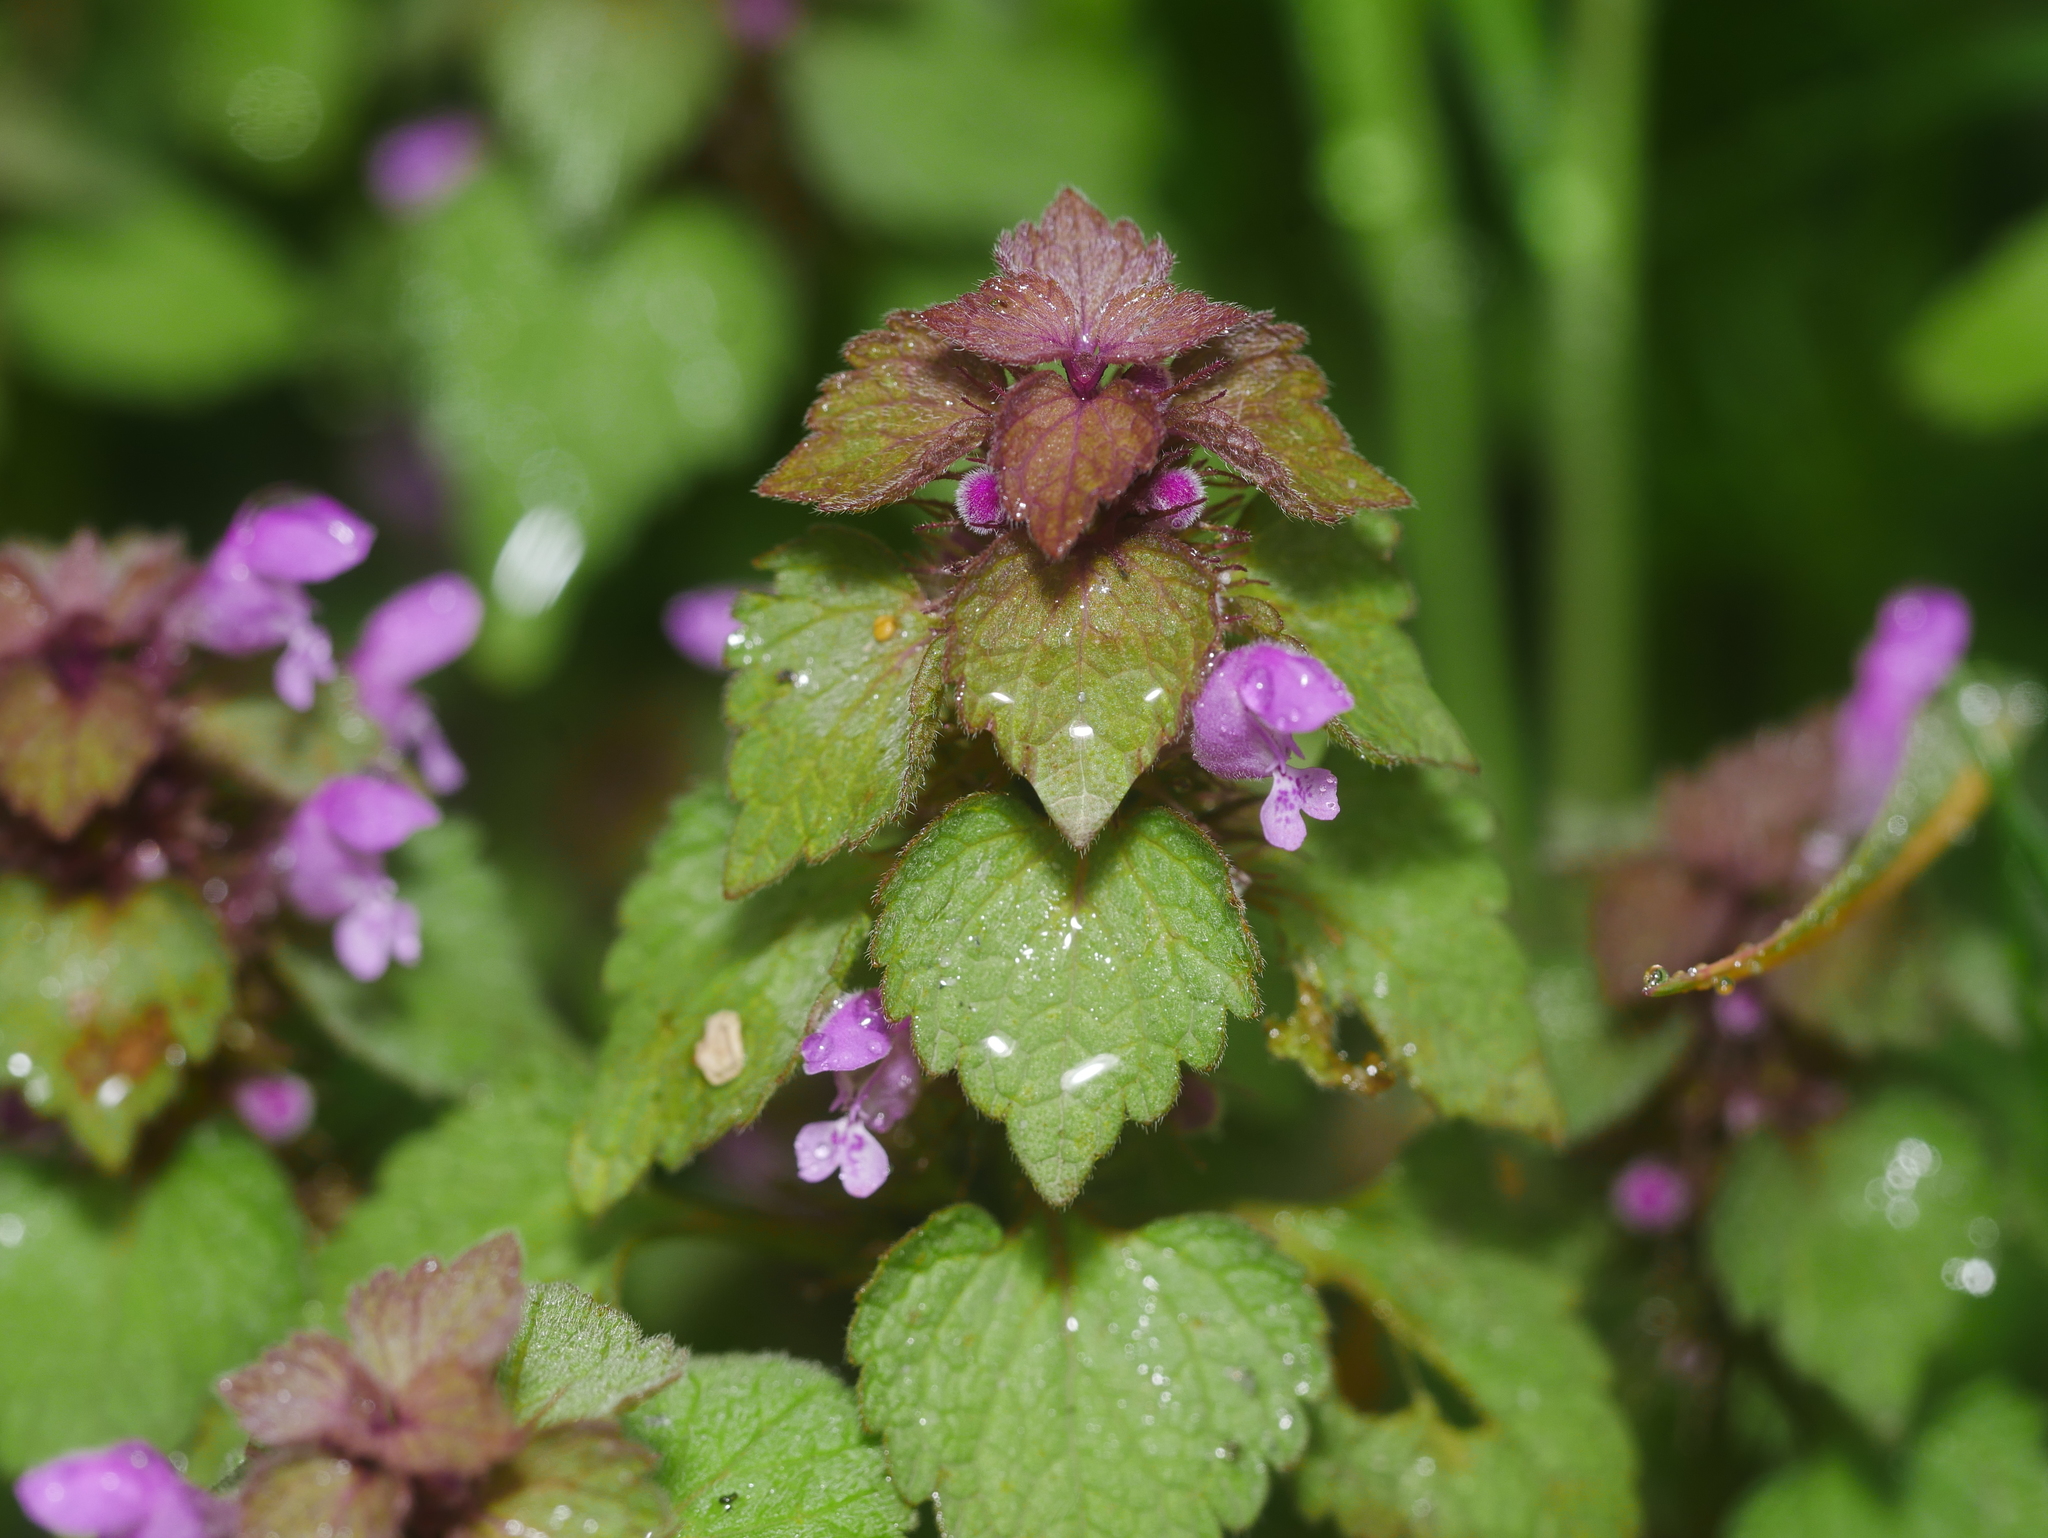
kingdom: Plantae
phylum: Tracheophyta
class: Magnoliopsida
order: Lamiales
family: Lamiaceae
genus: Lamium
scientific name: Lamium purpureum
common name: Red dead-nettle
